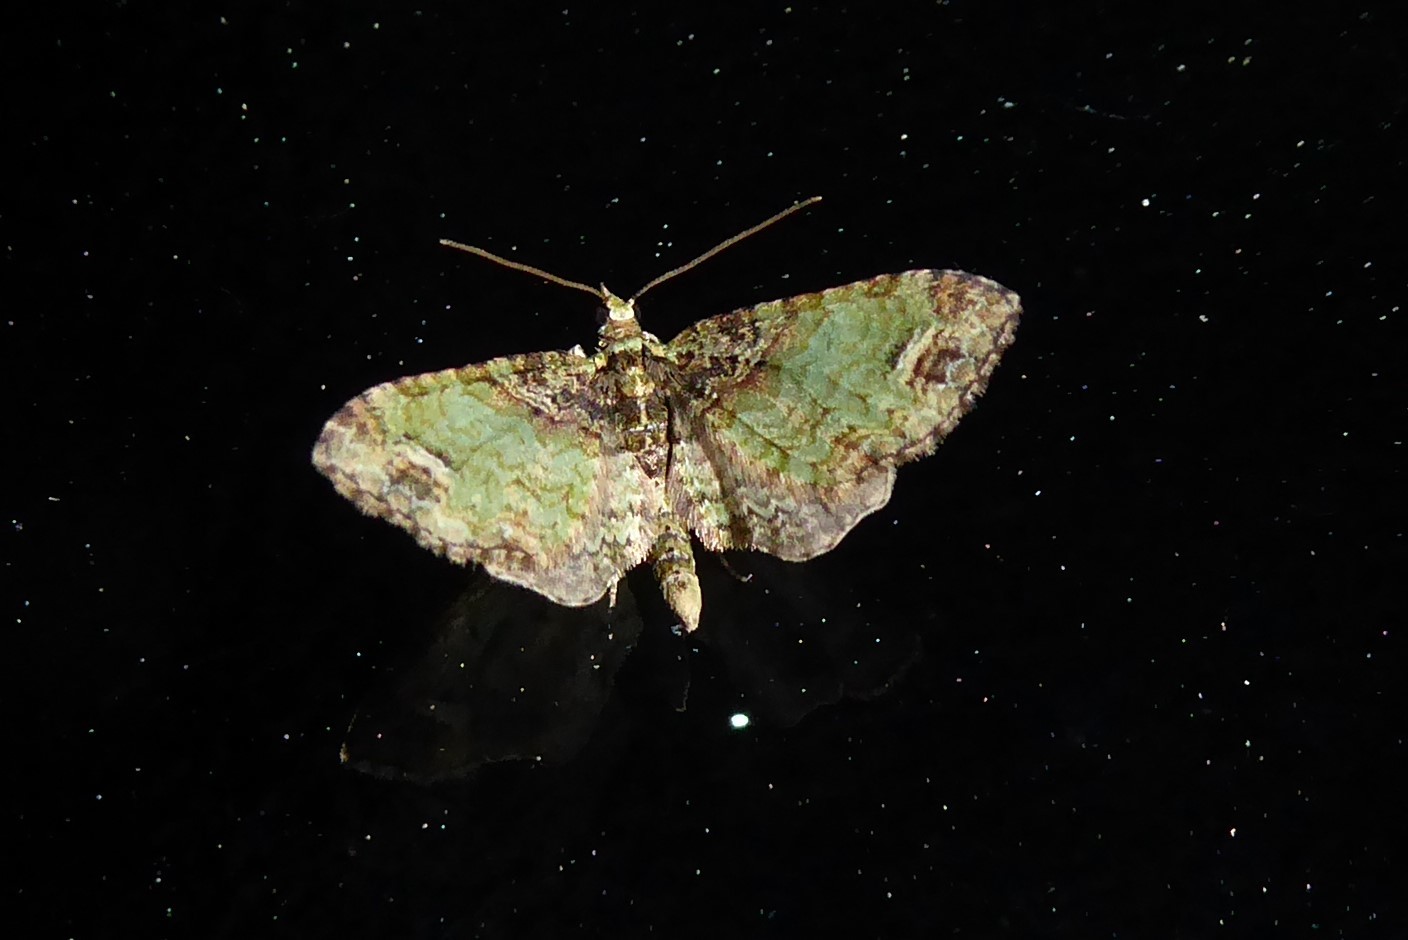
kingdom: Animalia
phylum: Arthropoda
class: Insecta
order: Lepidoptera
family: Geometridae
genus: Idaea
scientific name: Idaea mutanda
